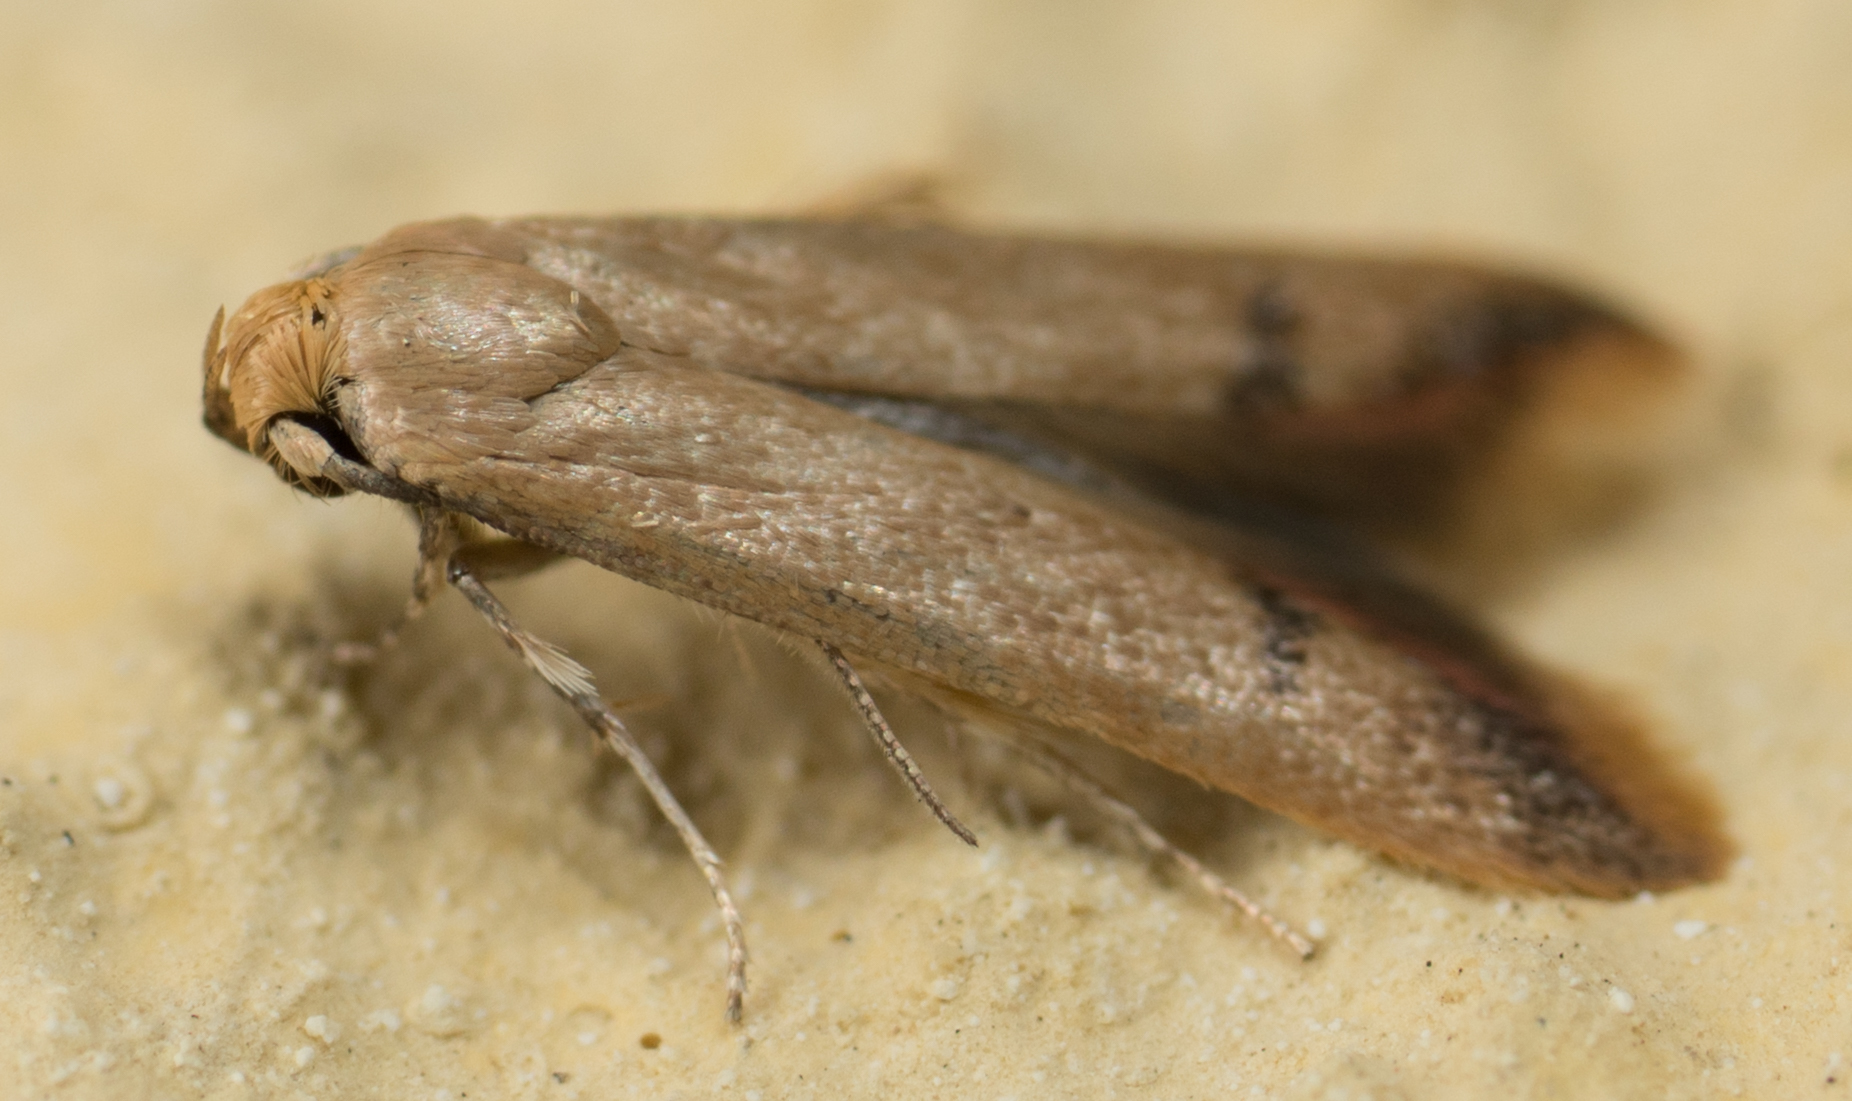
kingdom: Animalia
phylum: Arthropoda
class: Insecta
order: Lepidoptera
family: Oecophoridae
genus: Tachystola
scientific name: Tachystola hemisema
